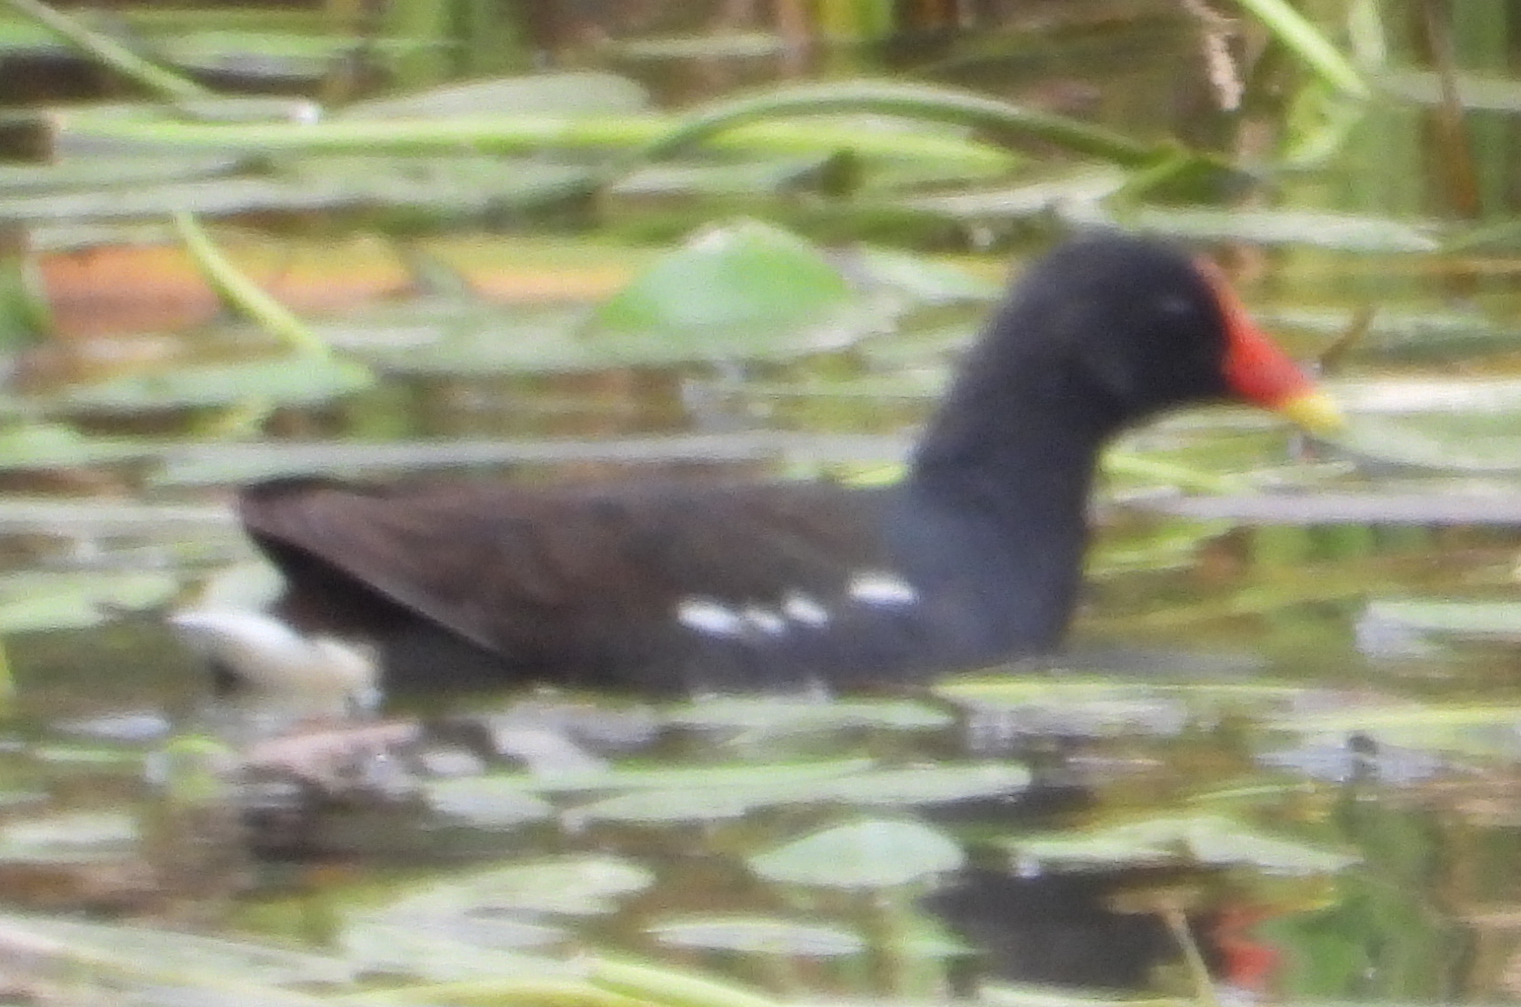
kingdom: Animalia
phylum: Chordata
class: Aves
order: Gruiformes
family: Rallidae
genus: Gallinula
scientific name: Gallinula chloropus
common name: Common moorhen
